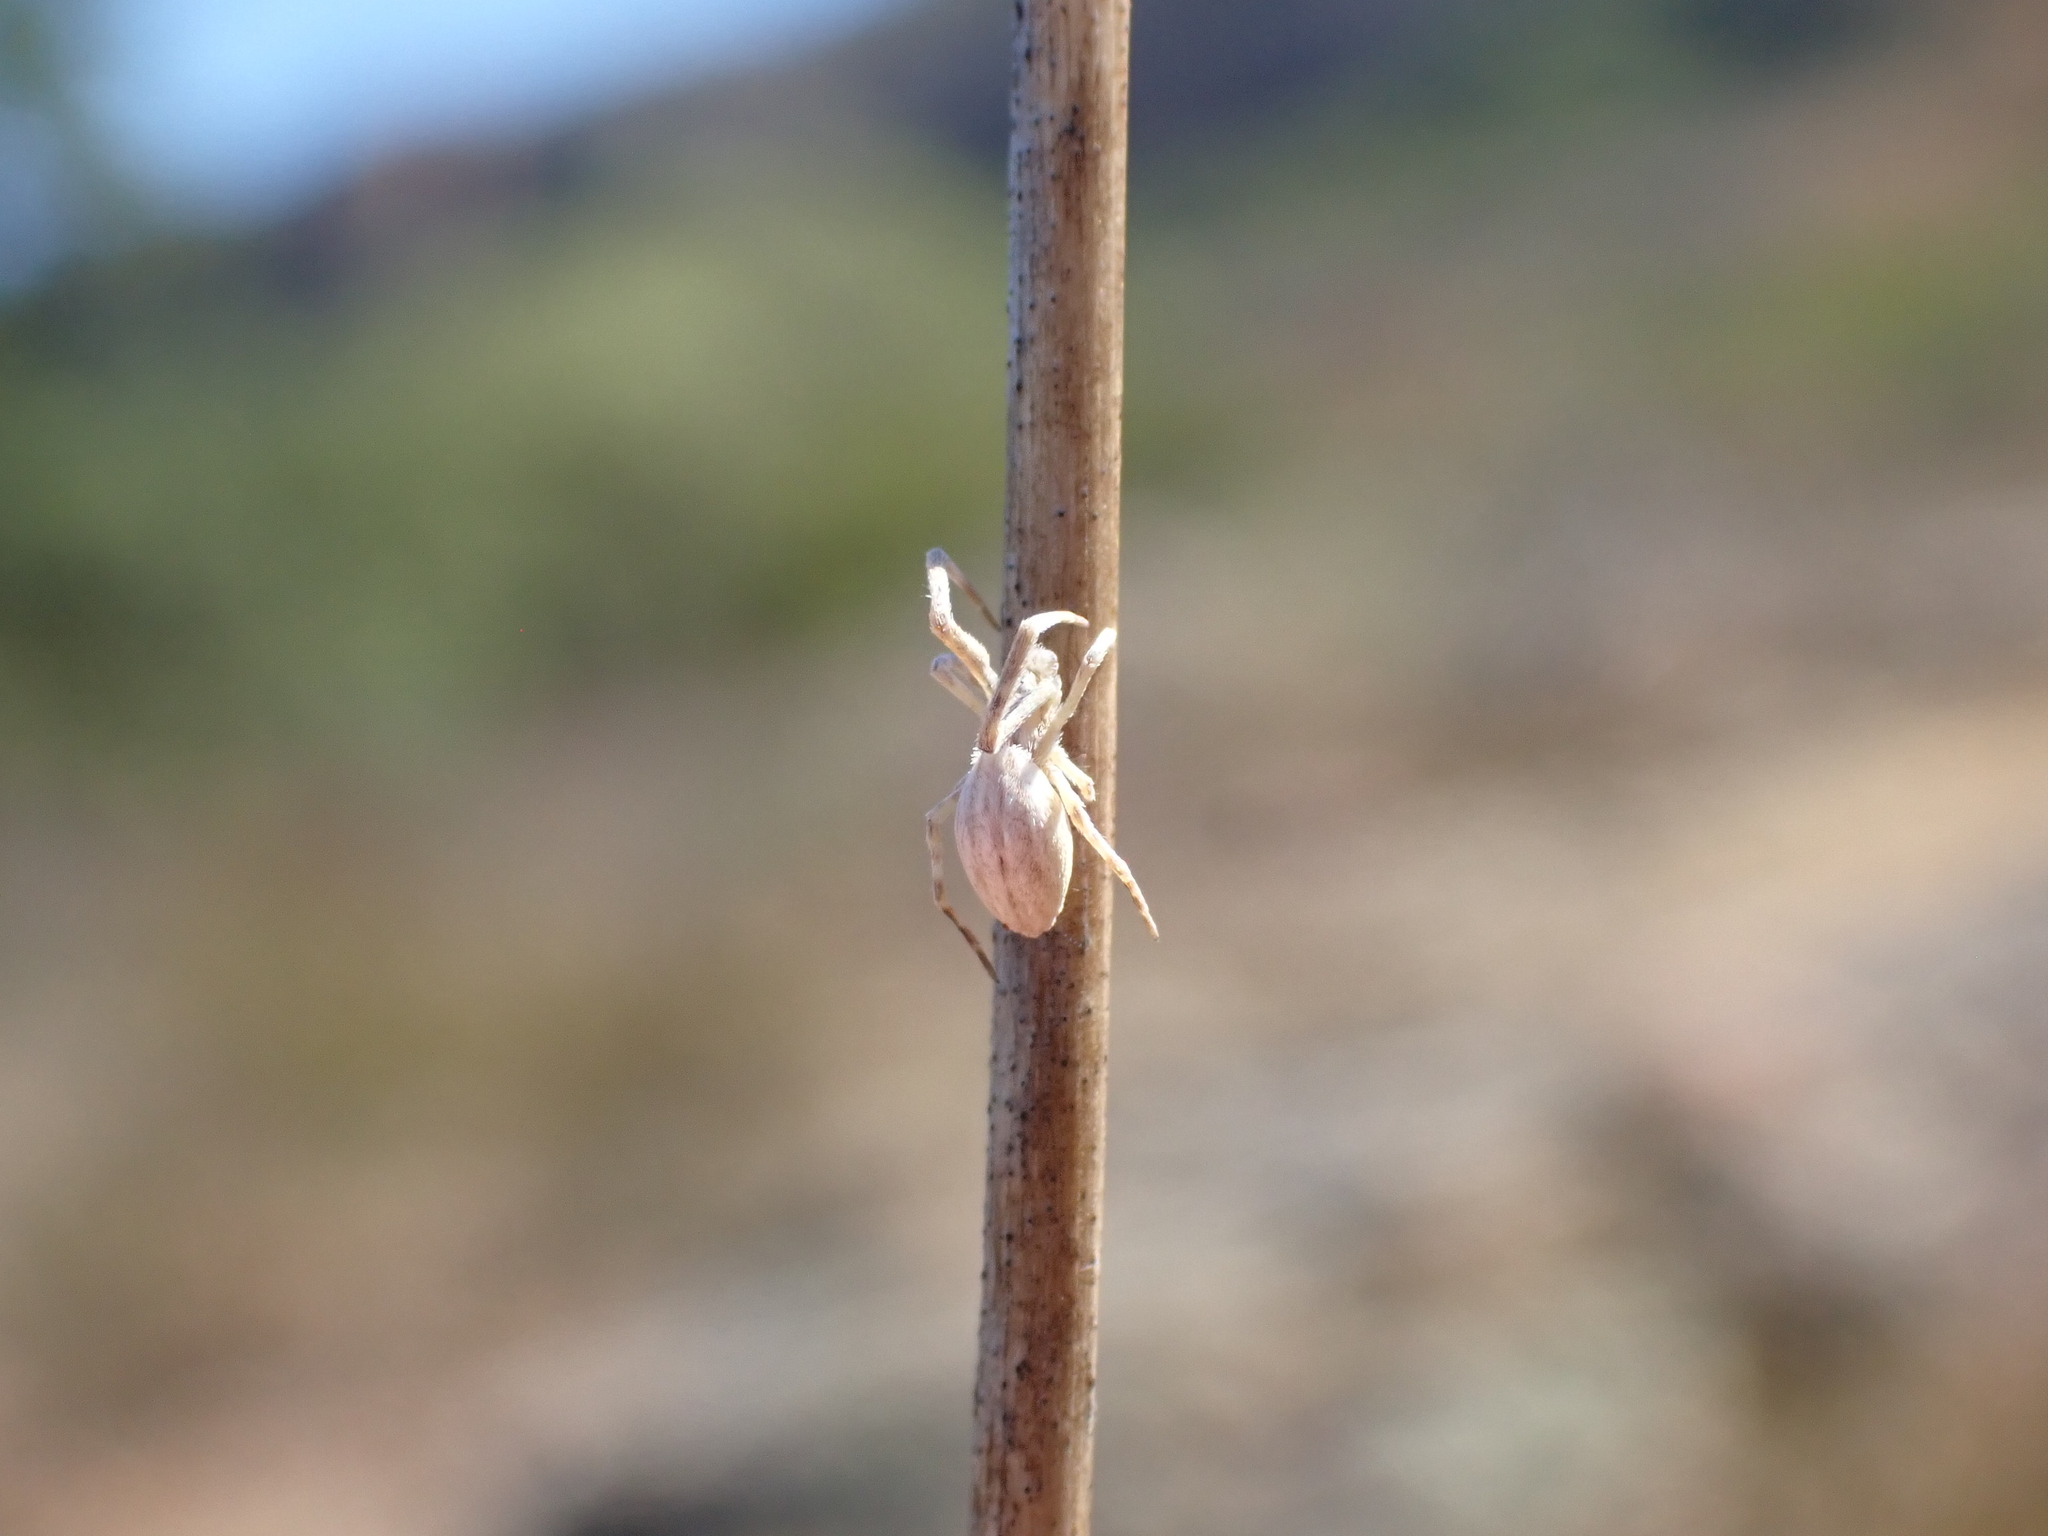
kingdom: Animalia
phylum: Arthropoda
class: Arachnida
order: Araneae
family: Uloboridae
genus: Uloborus
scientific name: Uloborus walckenaerius
